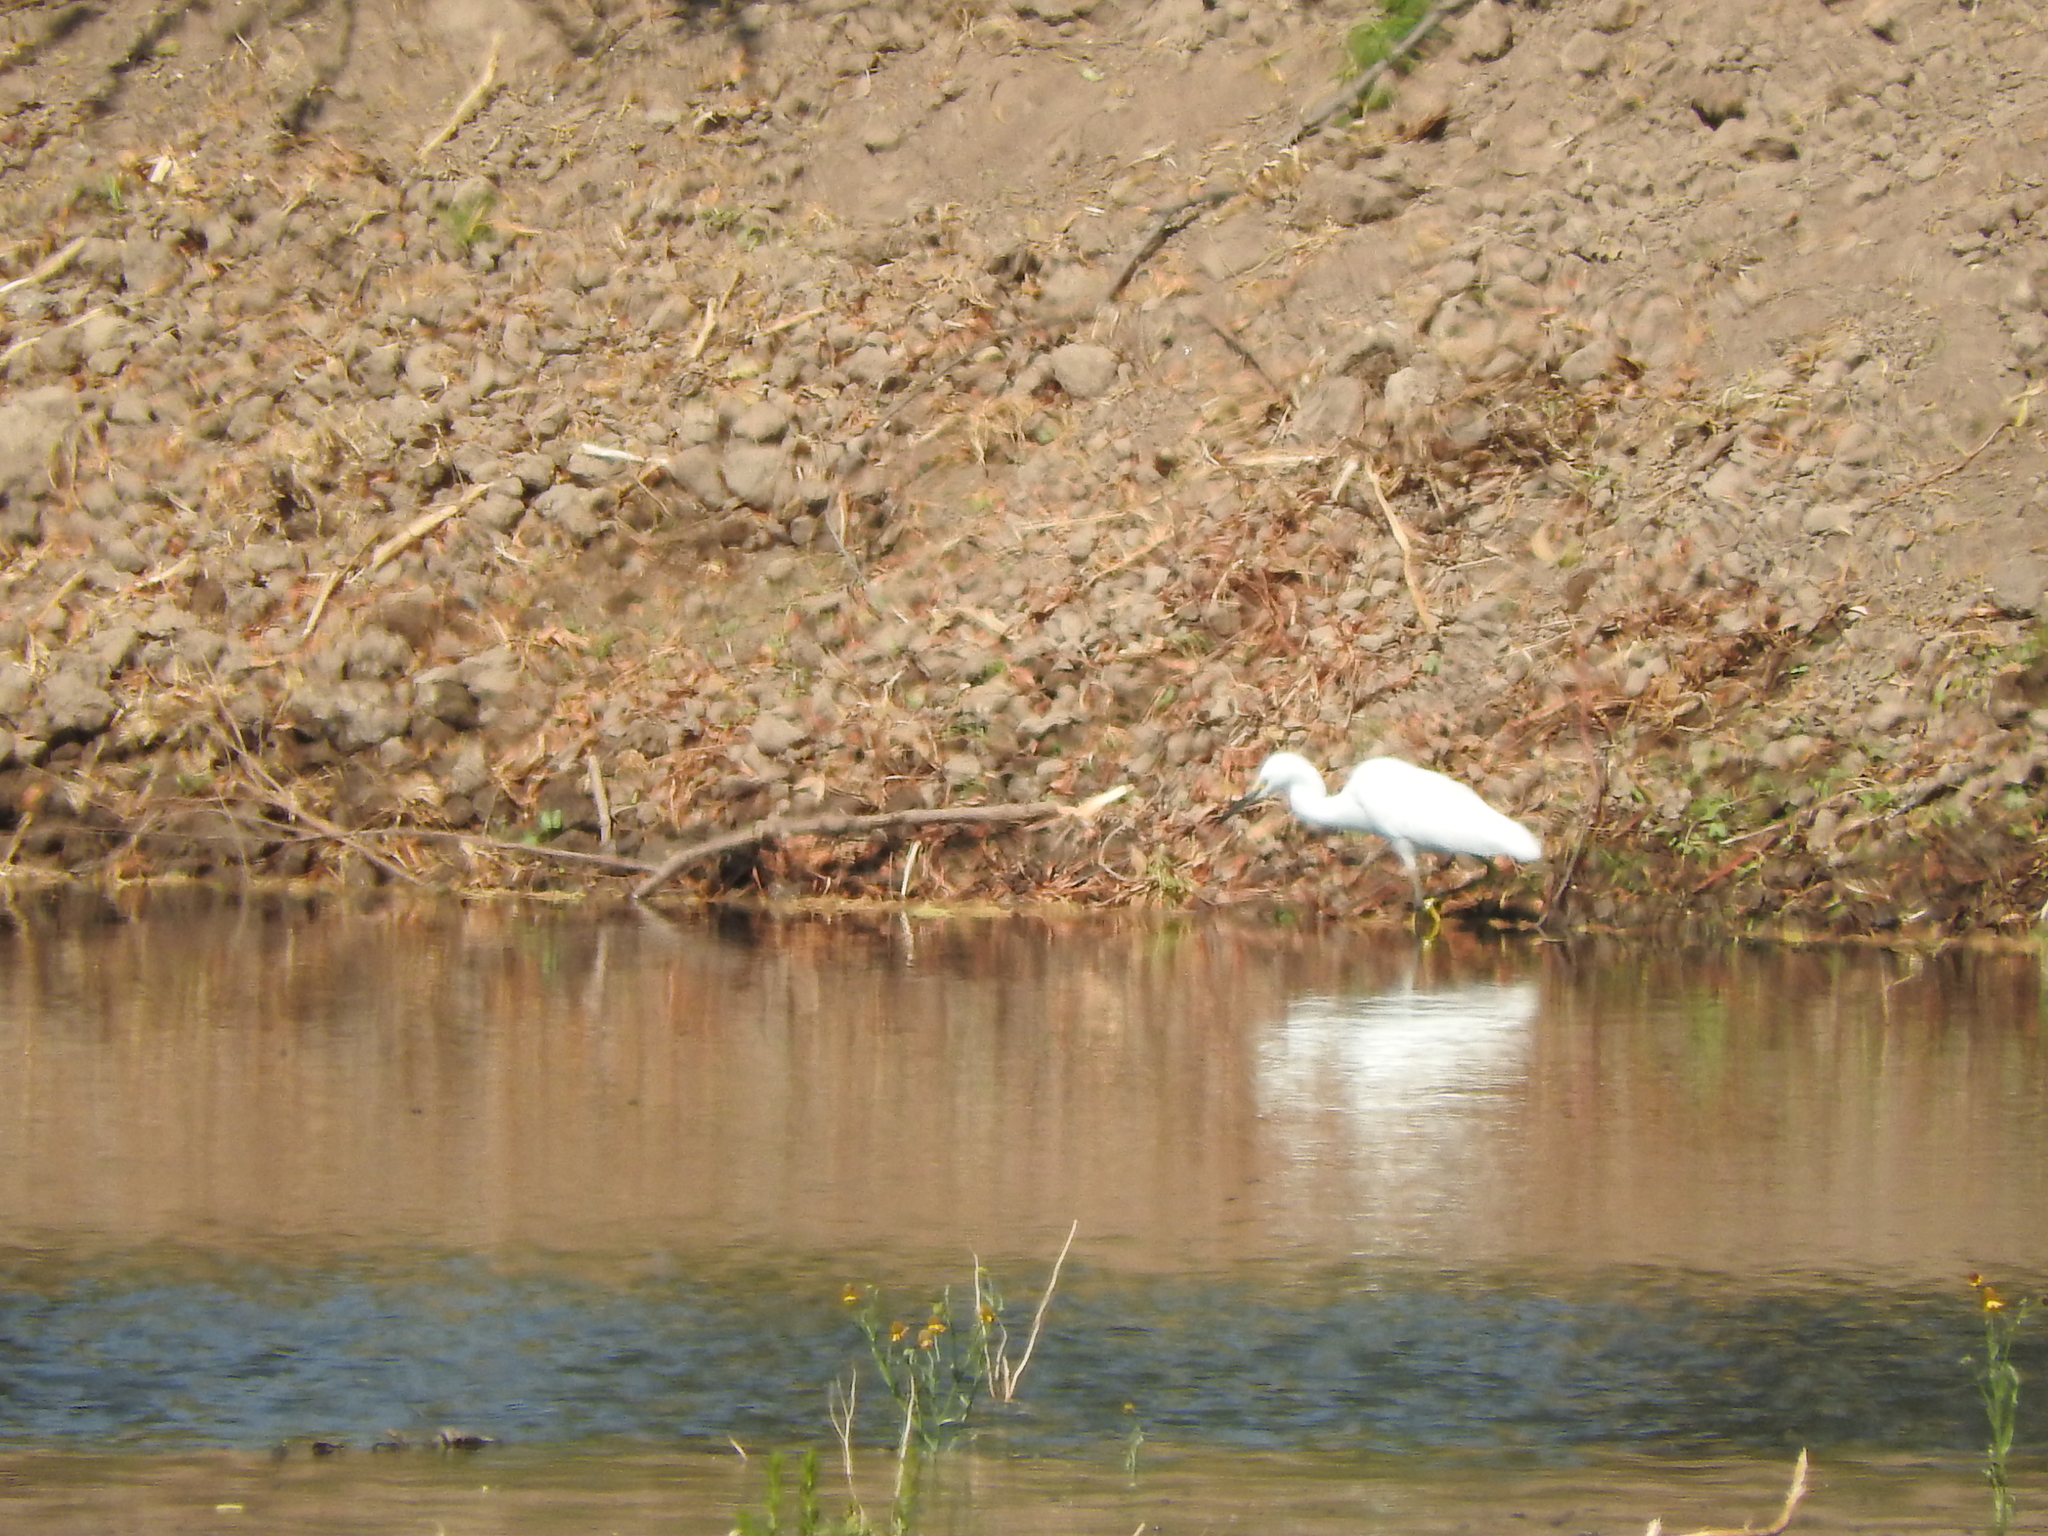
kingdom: Animalia
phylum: Chordata
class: Aves
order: Pelecaniformes
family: Ardeidae
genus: Egretta
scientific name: Egretta thula
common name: Snowy egret
